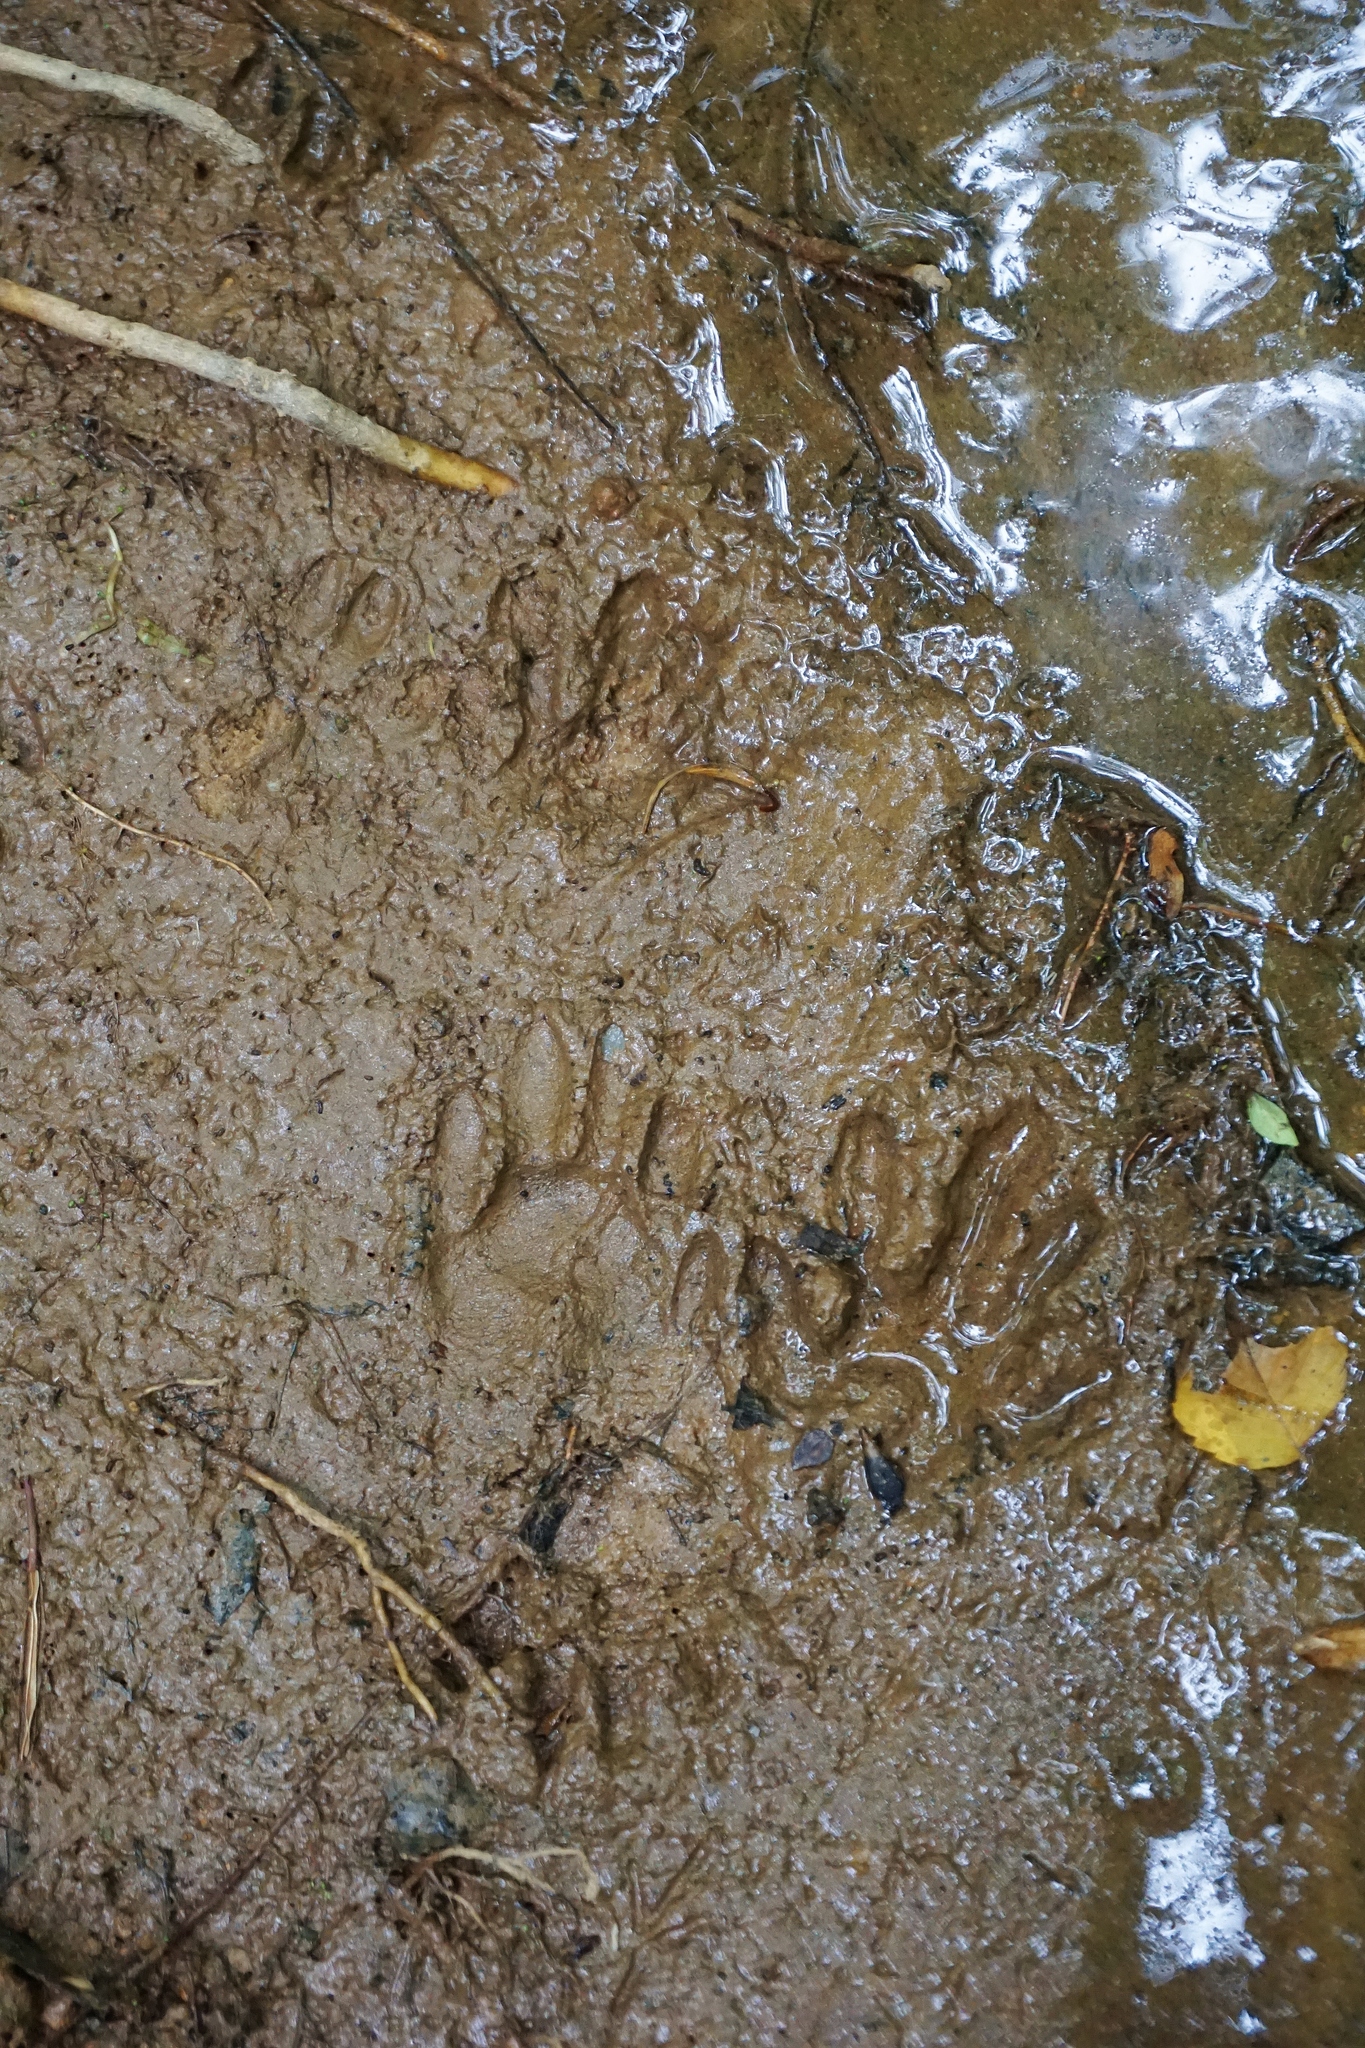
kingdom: Animalia
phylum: Chordata
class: Mammalia
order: Carnivora
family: Procyonidae
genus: Procyon
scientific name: Procyon lotor
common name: Raccoon
